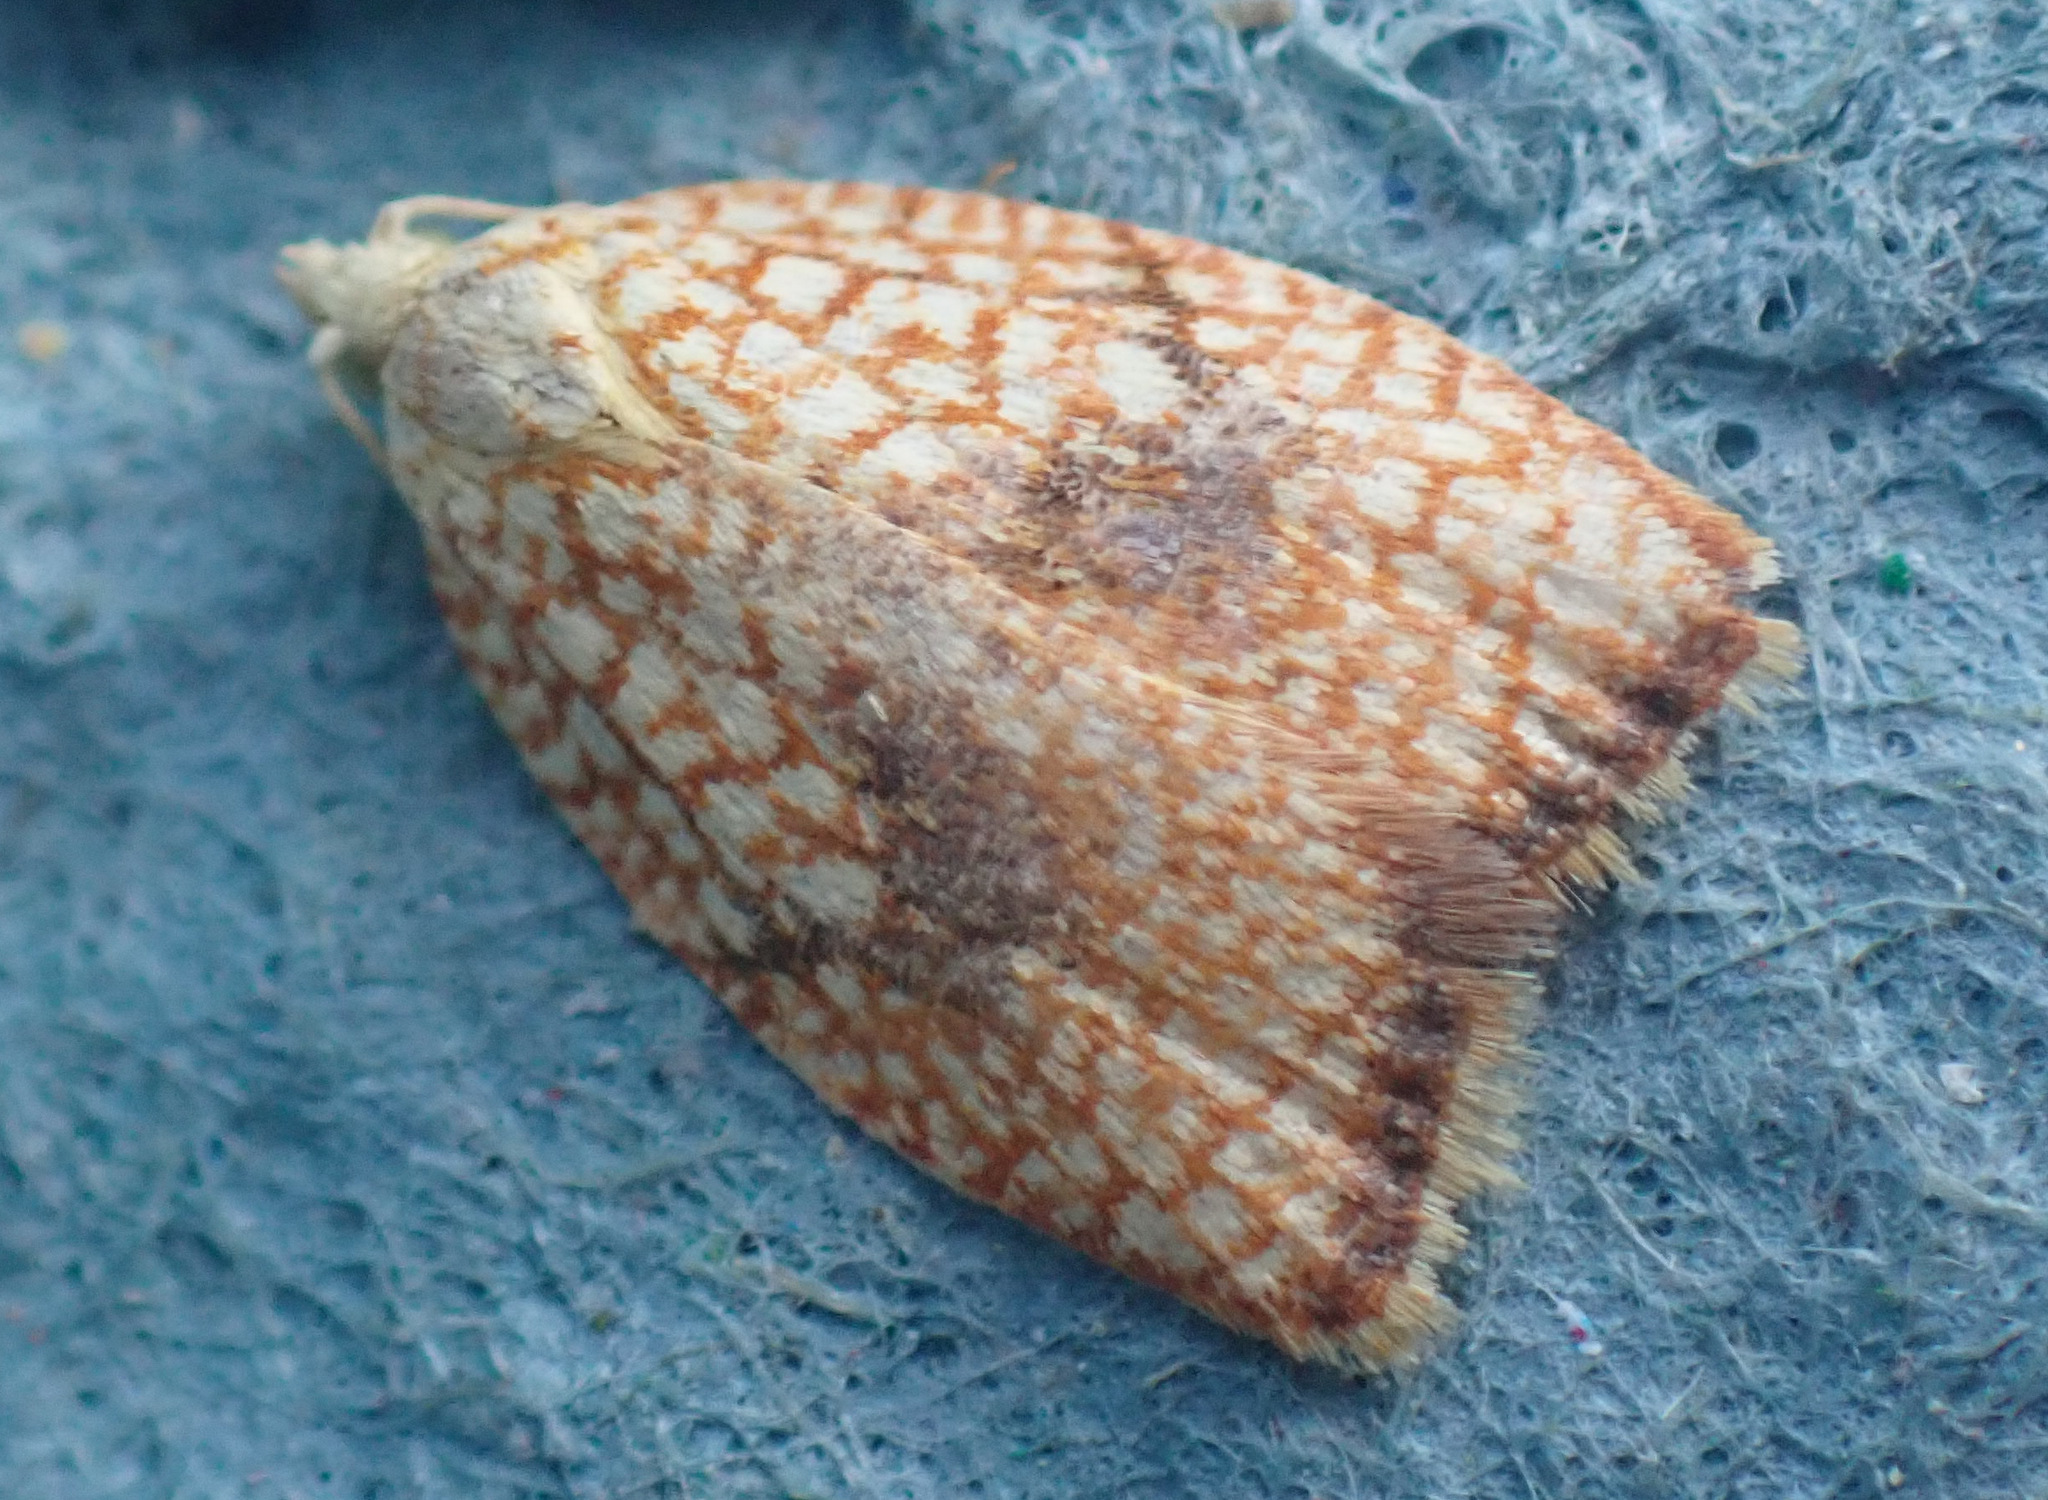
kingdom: Animalia
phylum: Arthropoda
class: Insecta
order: Lepidoptera
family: Tortricidae
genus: Acleris
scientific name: Acleris forsskaleana
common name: Maple button
